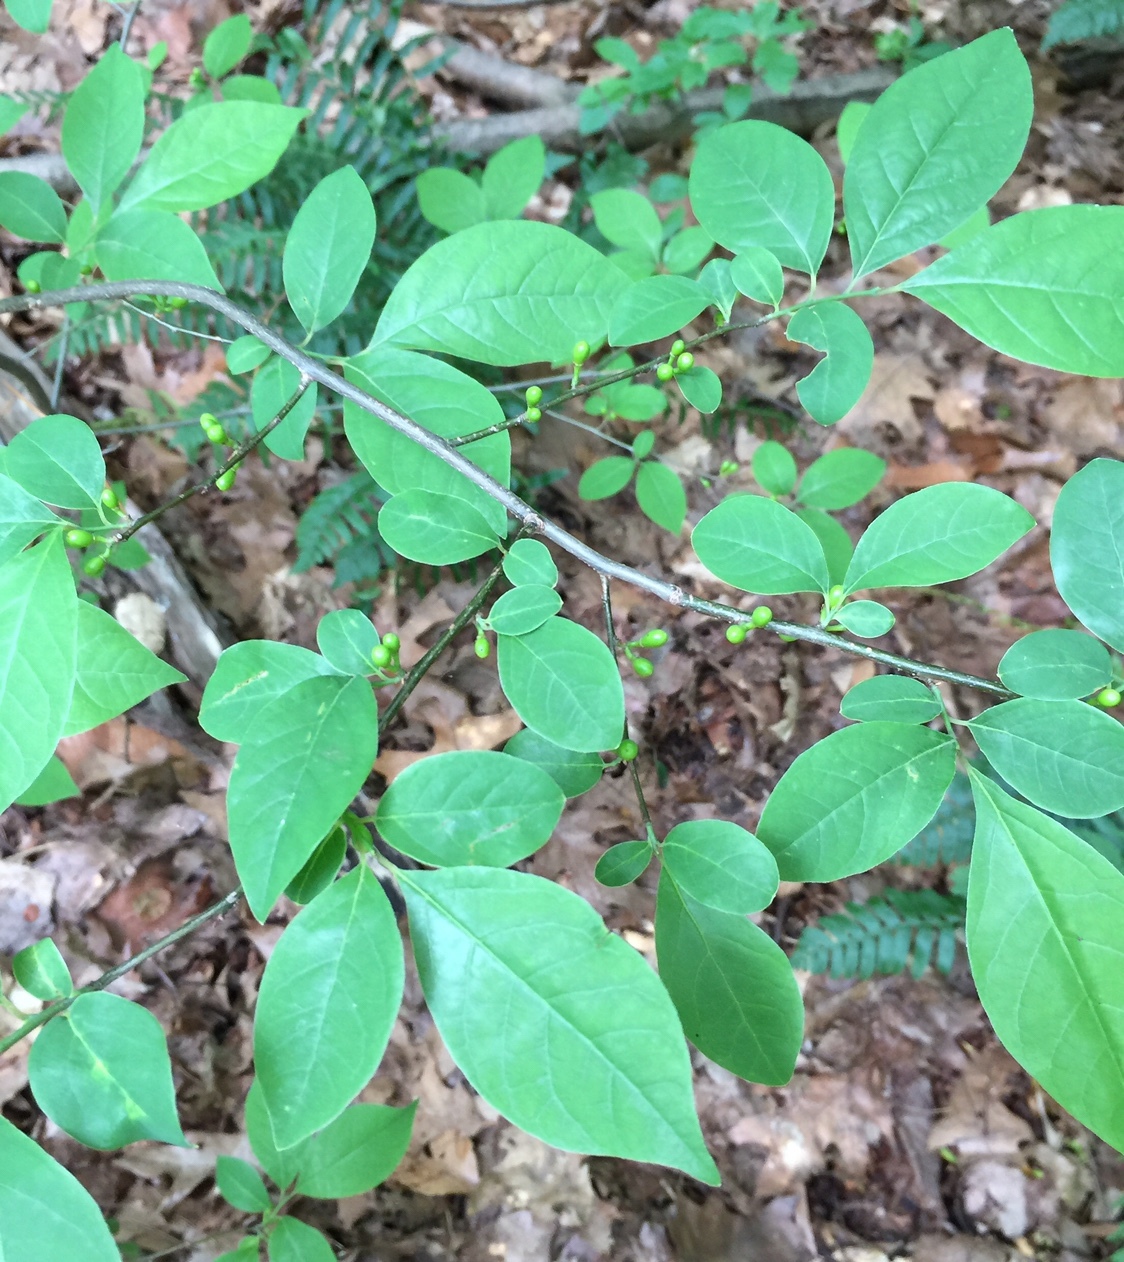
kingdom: Plantae
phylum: Tracheophyta
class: Magnoliopsida
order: Laurales
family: Lauraceae
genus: Lindera
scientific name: Lindera benzoin
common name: Spicebush
